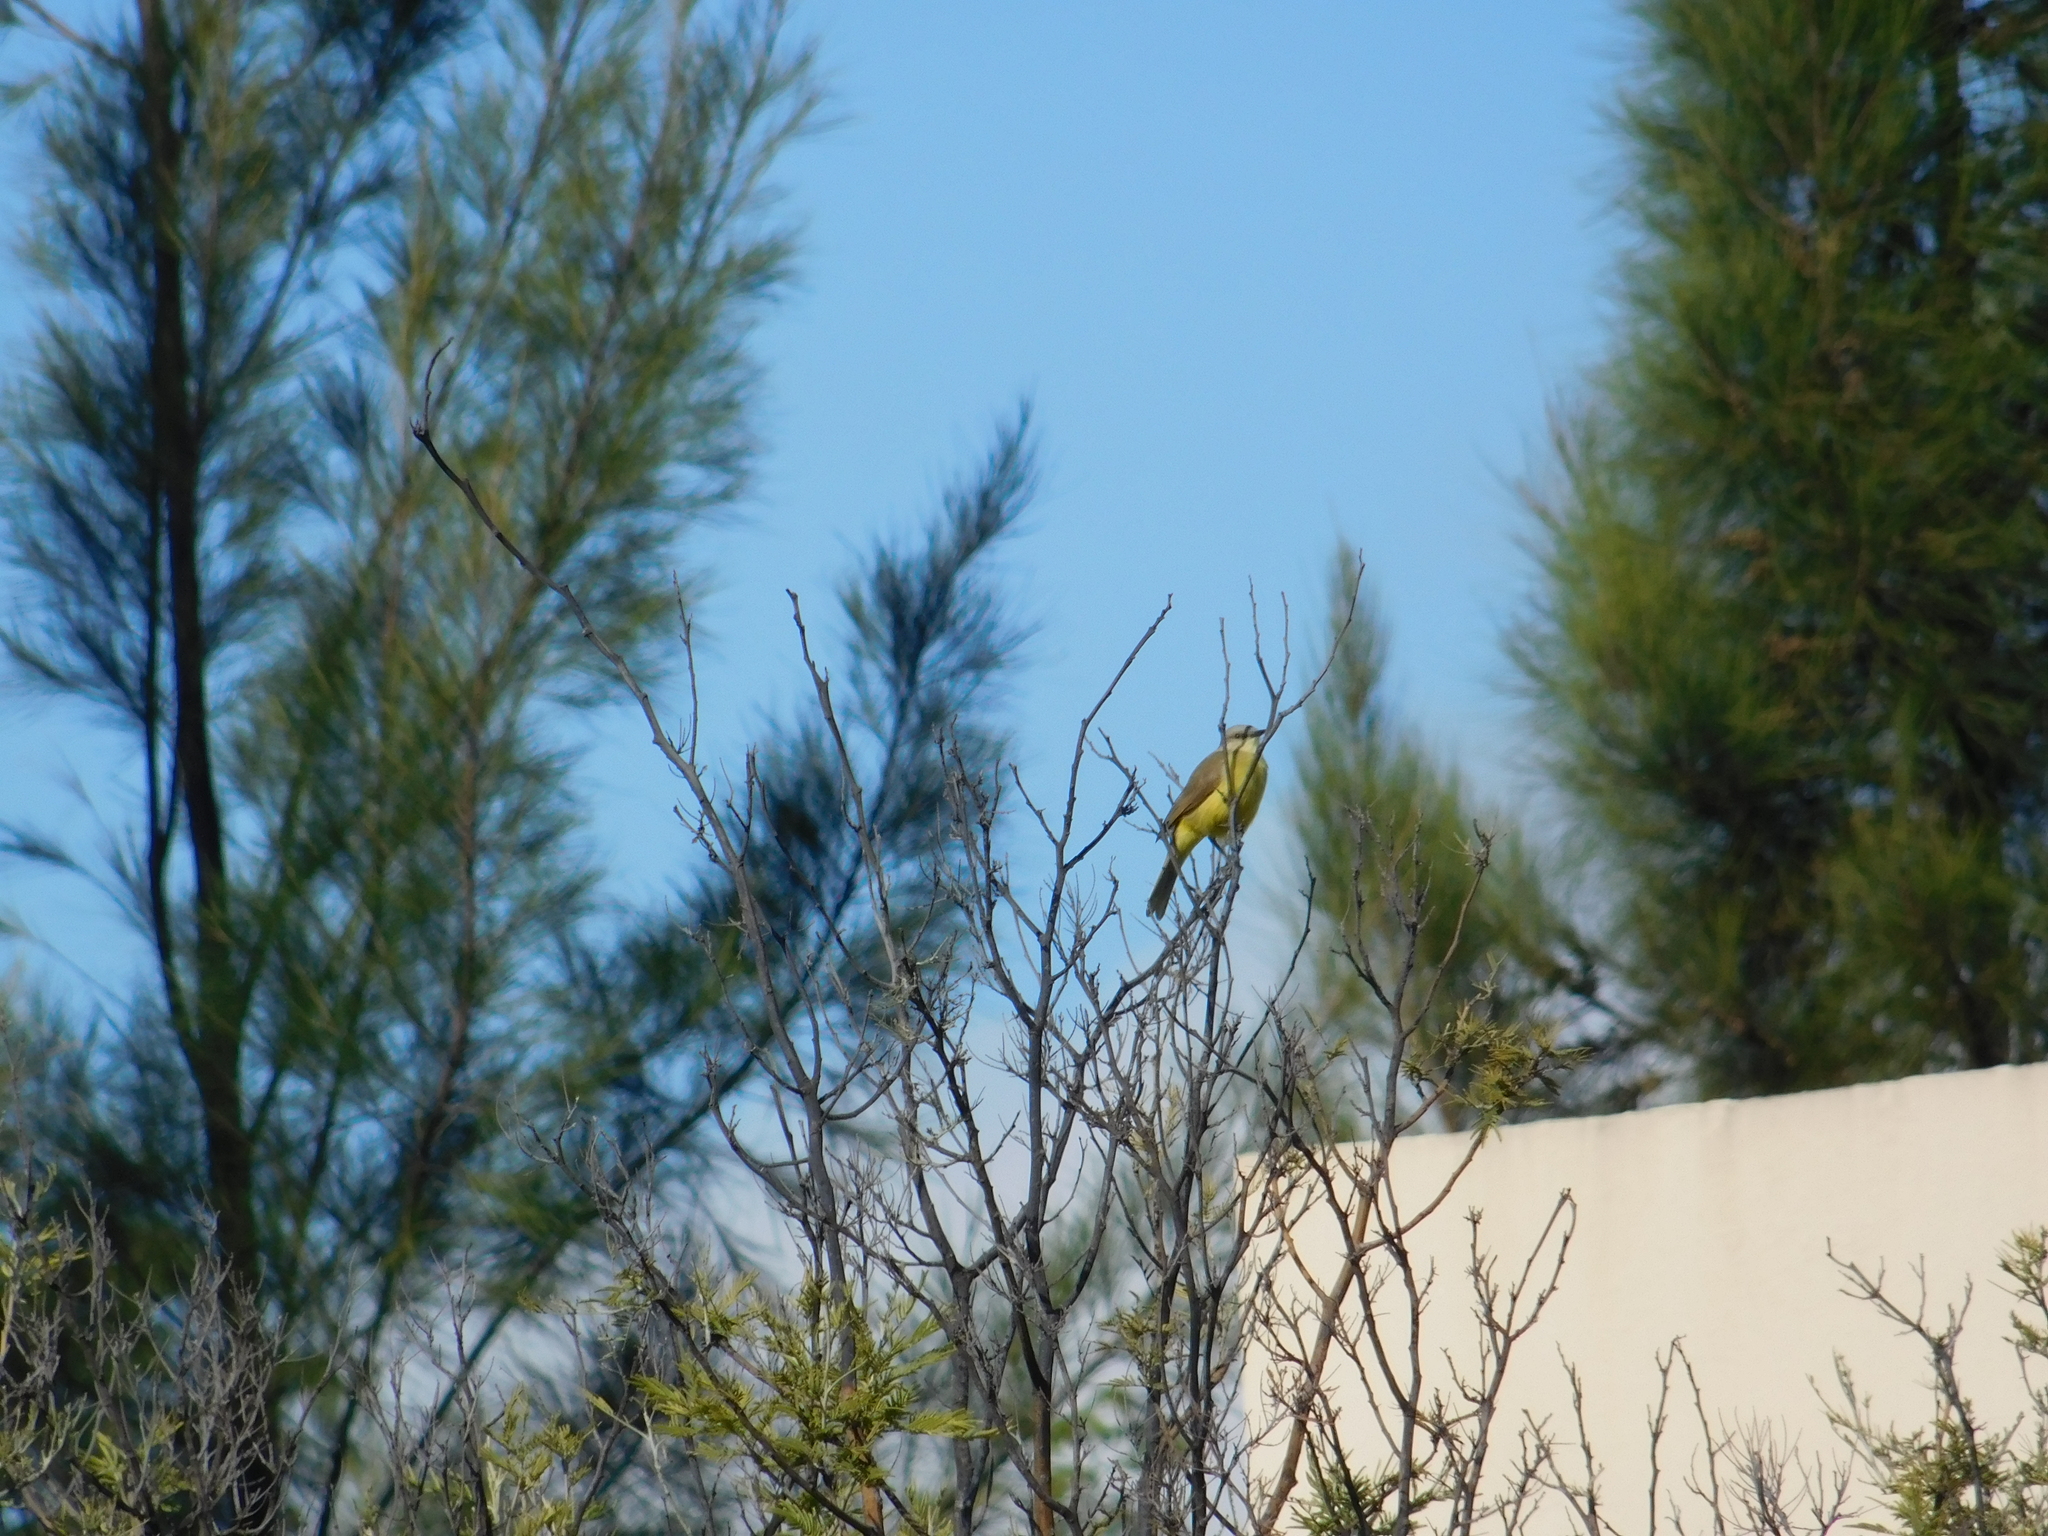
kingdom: Animalia
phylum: Chordata
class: Aves
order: Passeriformes
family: Tyrannidae
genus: Machetornis
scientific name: Machetornis rixosa
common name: Cattle tyrant
